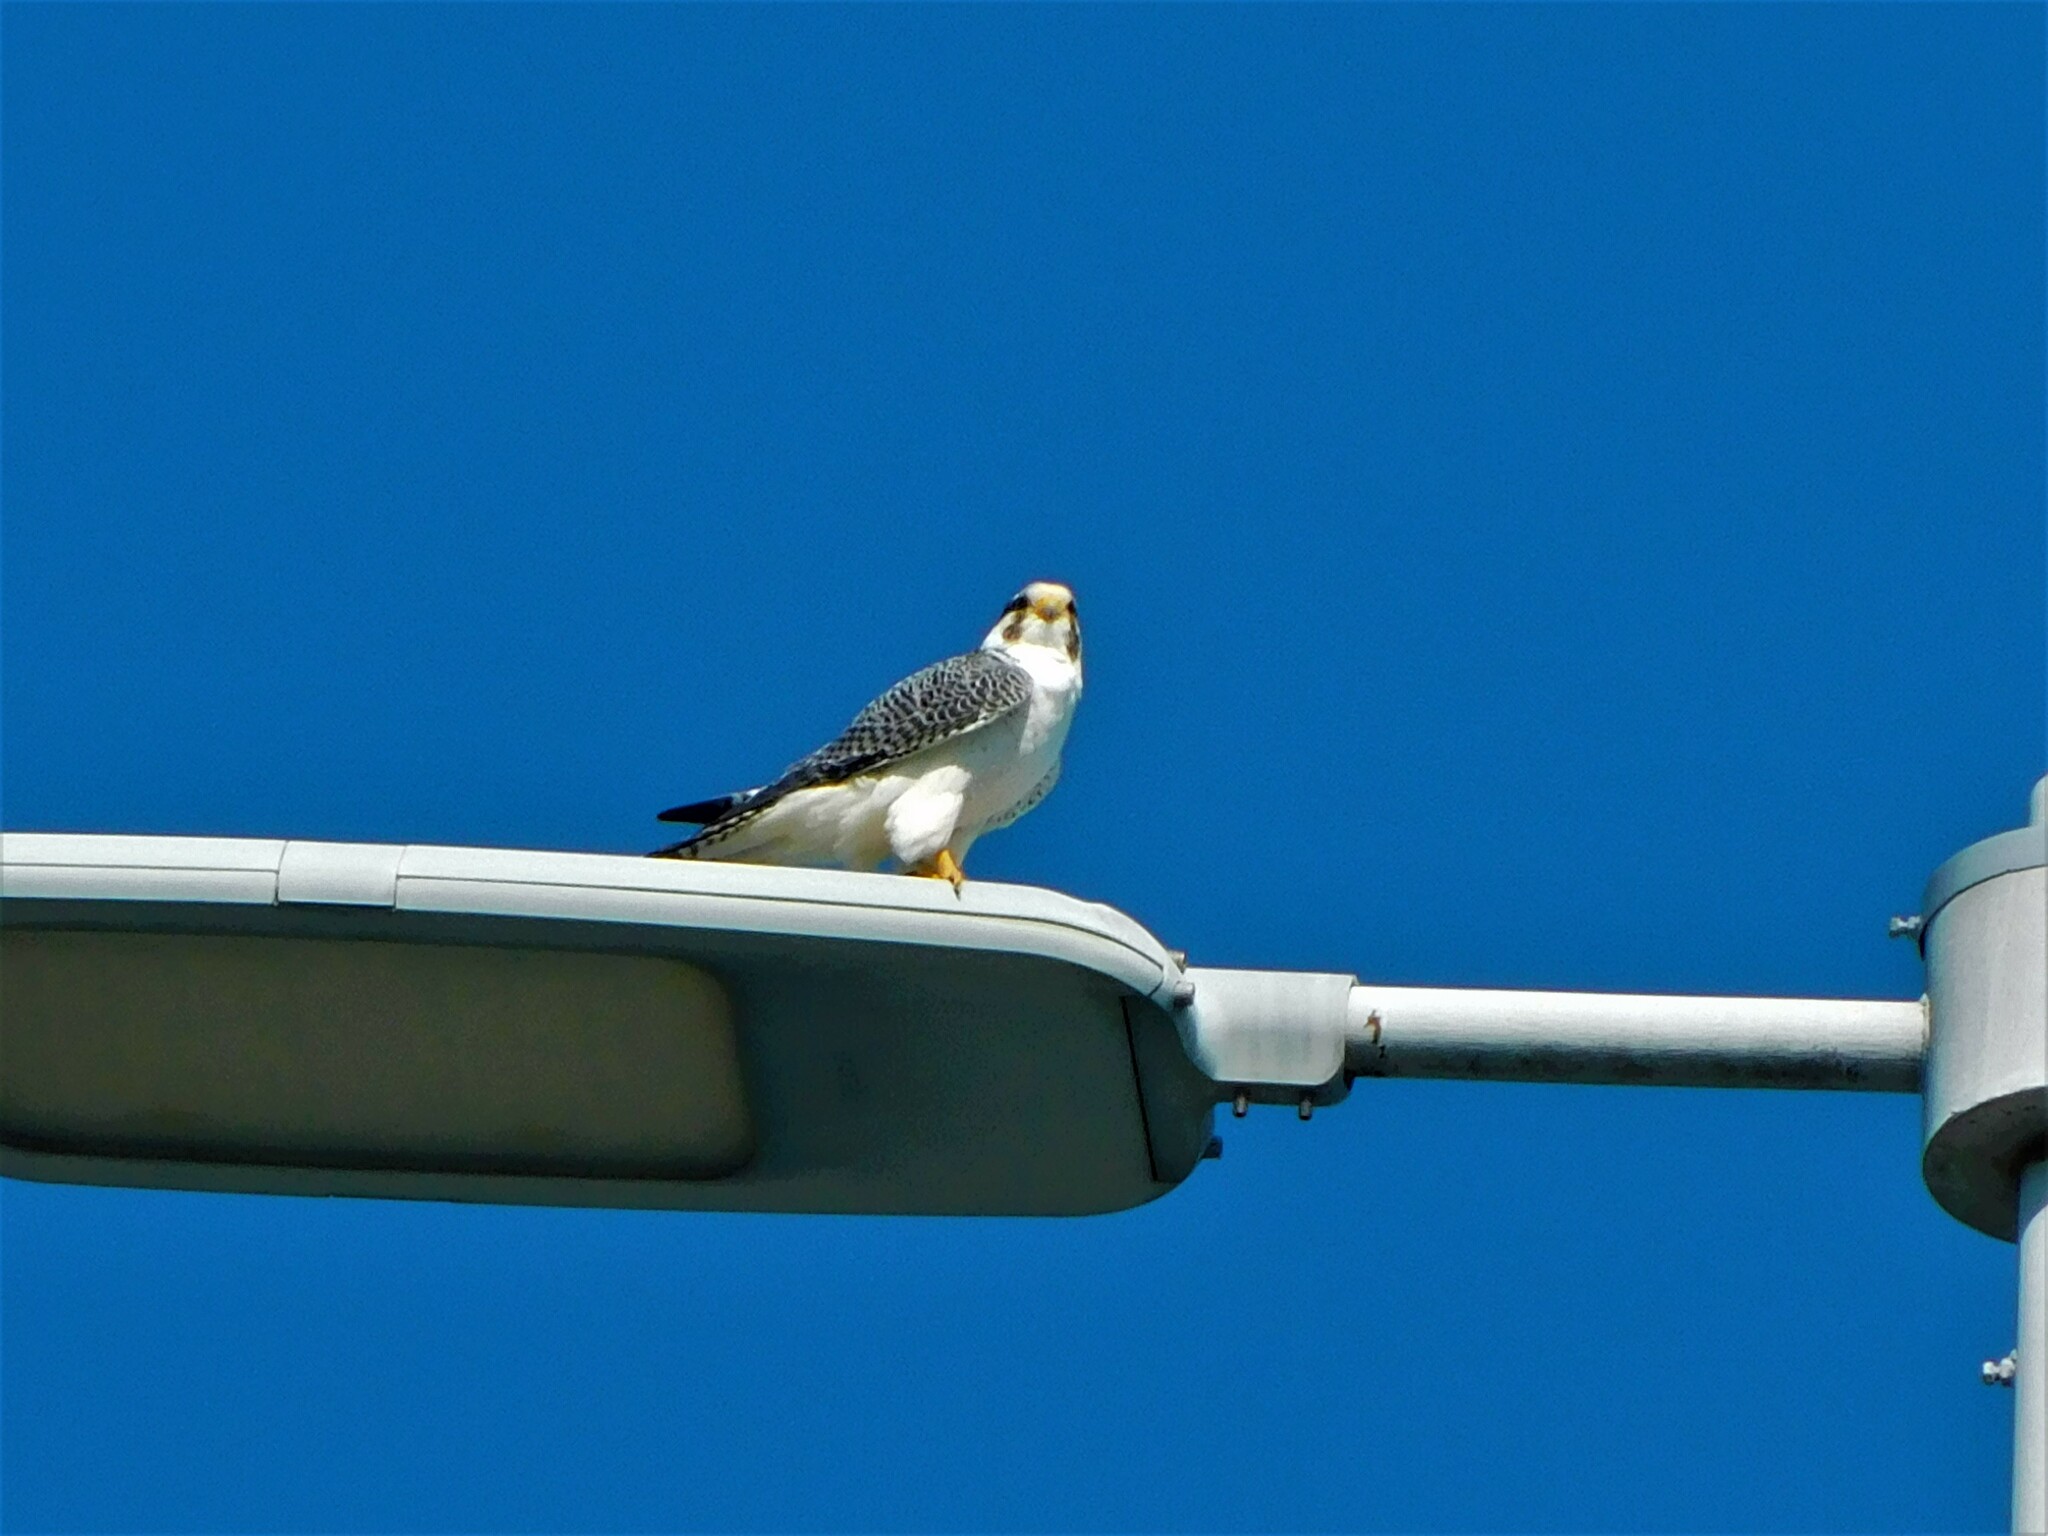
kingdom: Animalia
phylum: Chordata
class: Aves
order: Falconiformes
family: Falconidae
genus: Falco
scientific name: Falco peregrinus
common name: Peregrine falcon
